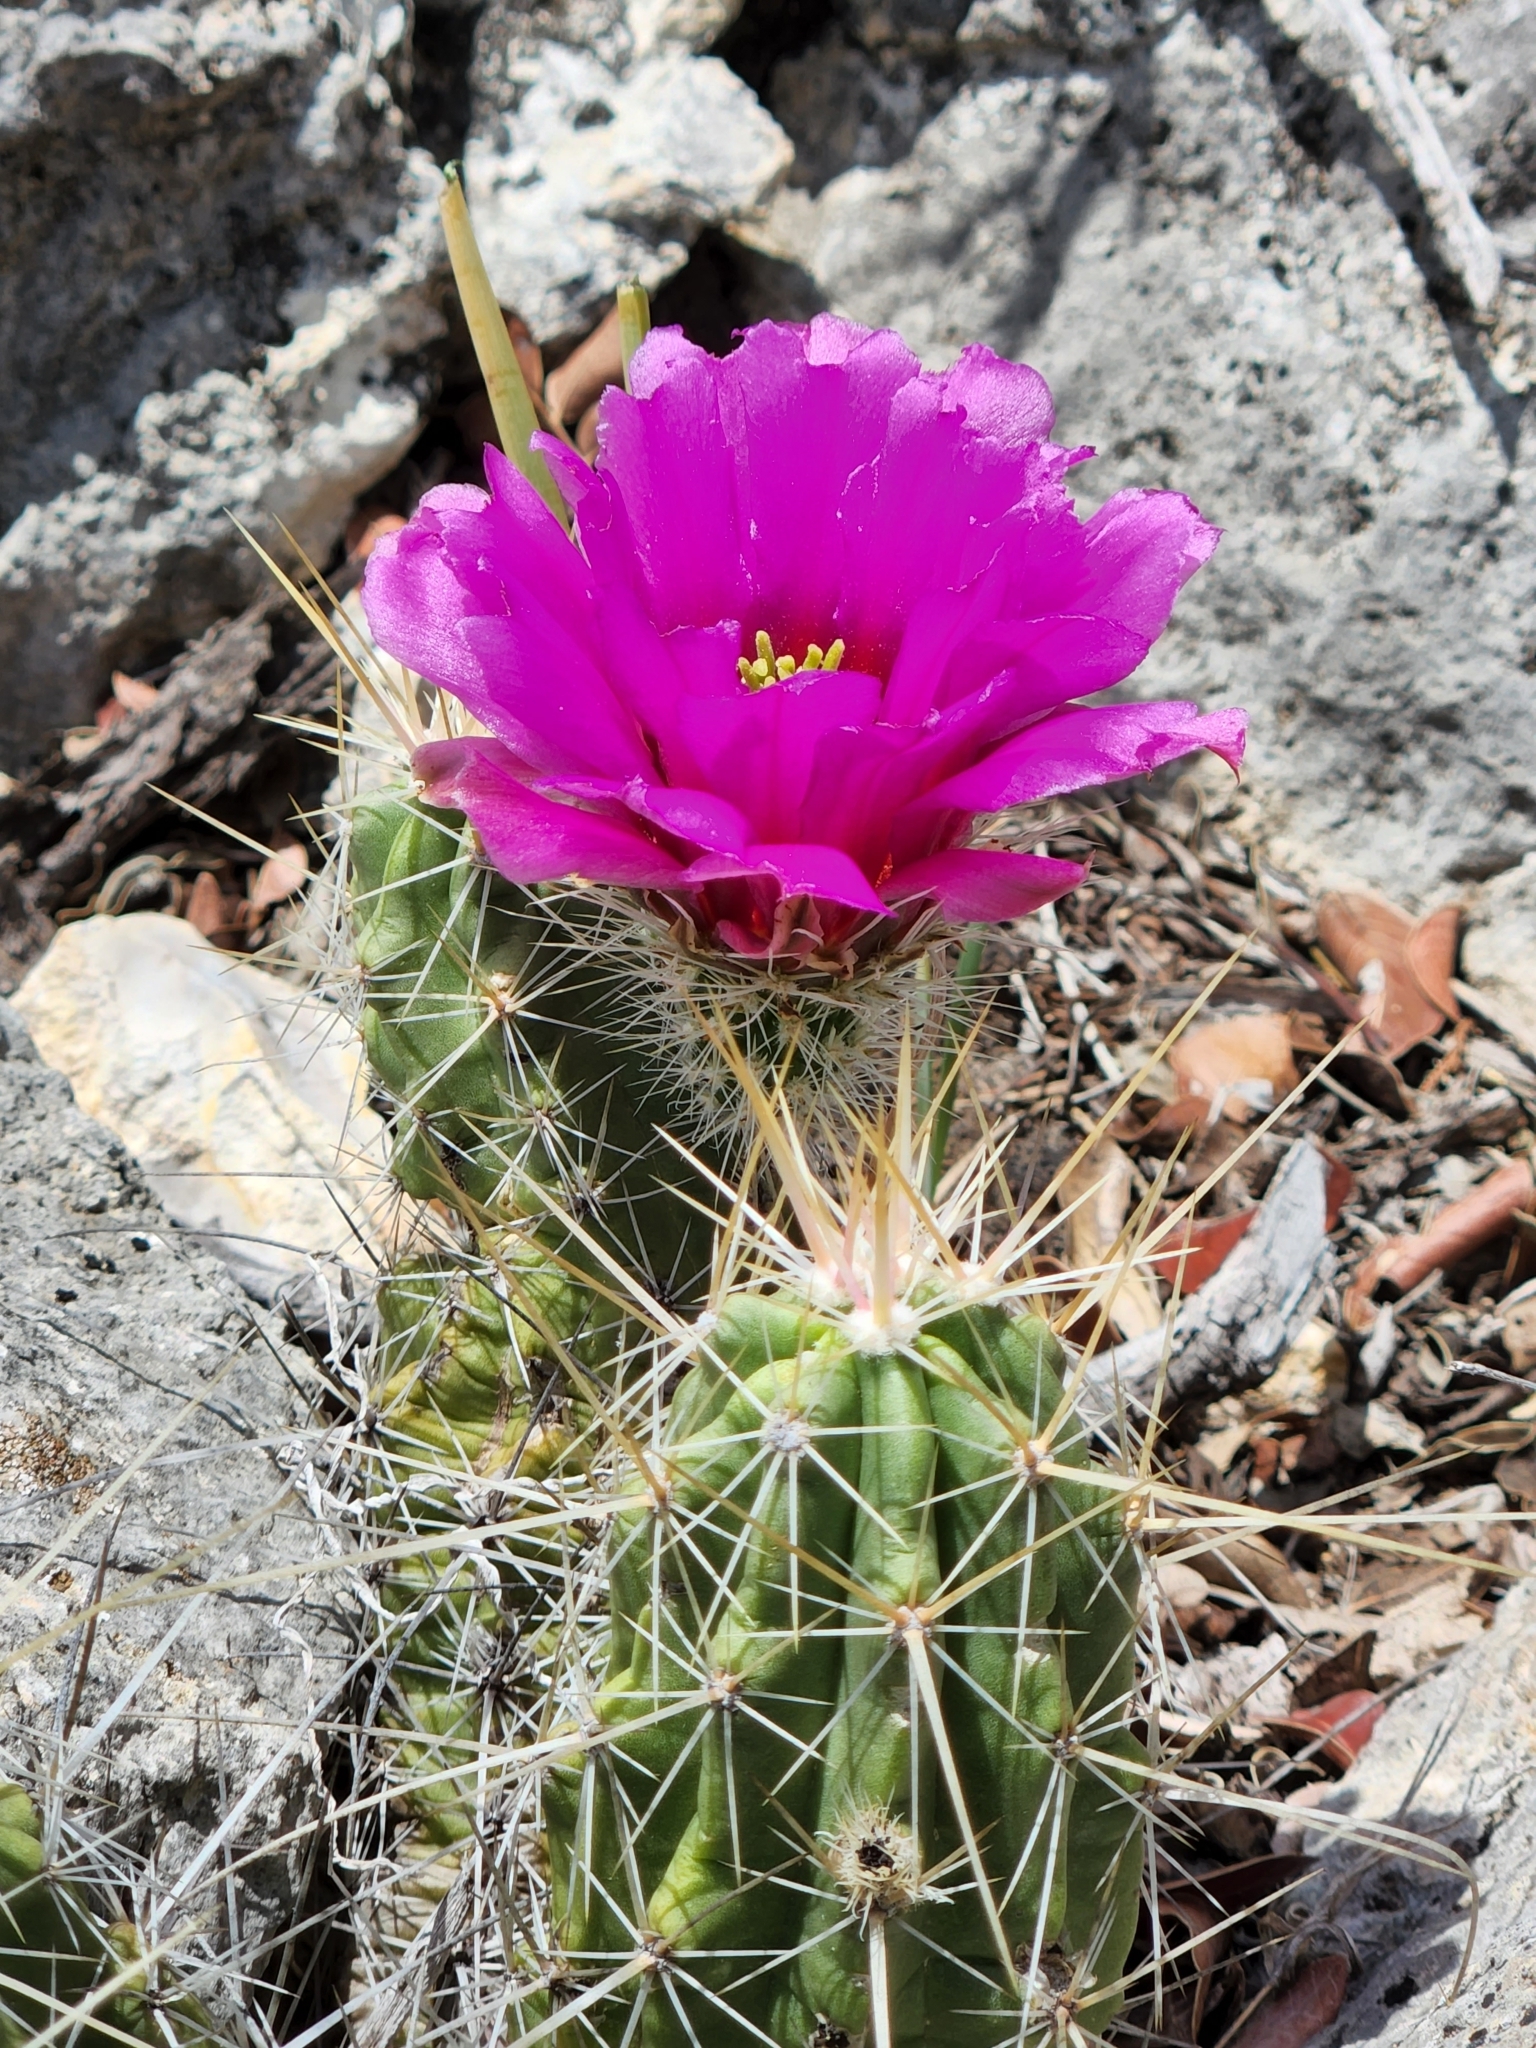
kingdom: Plantae
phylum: Tracheophyta
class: Magnoliopsida
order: Caryophyllales
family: Cactaceae
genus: Echinocereus
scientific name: Echinocereus enneacanthus
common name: Pitaya
